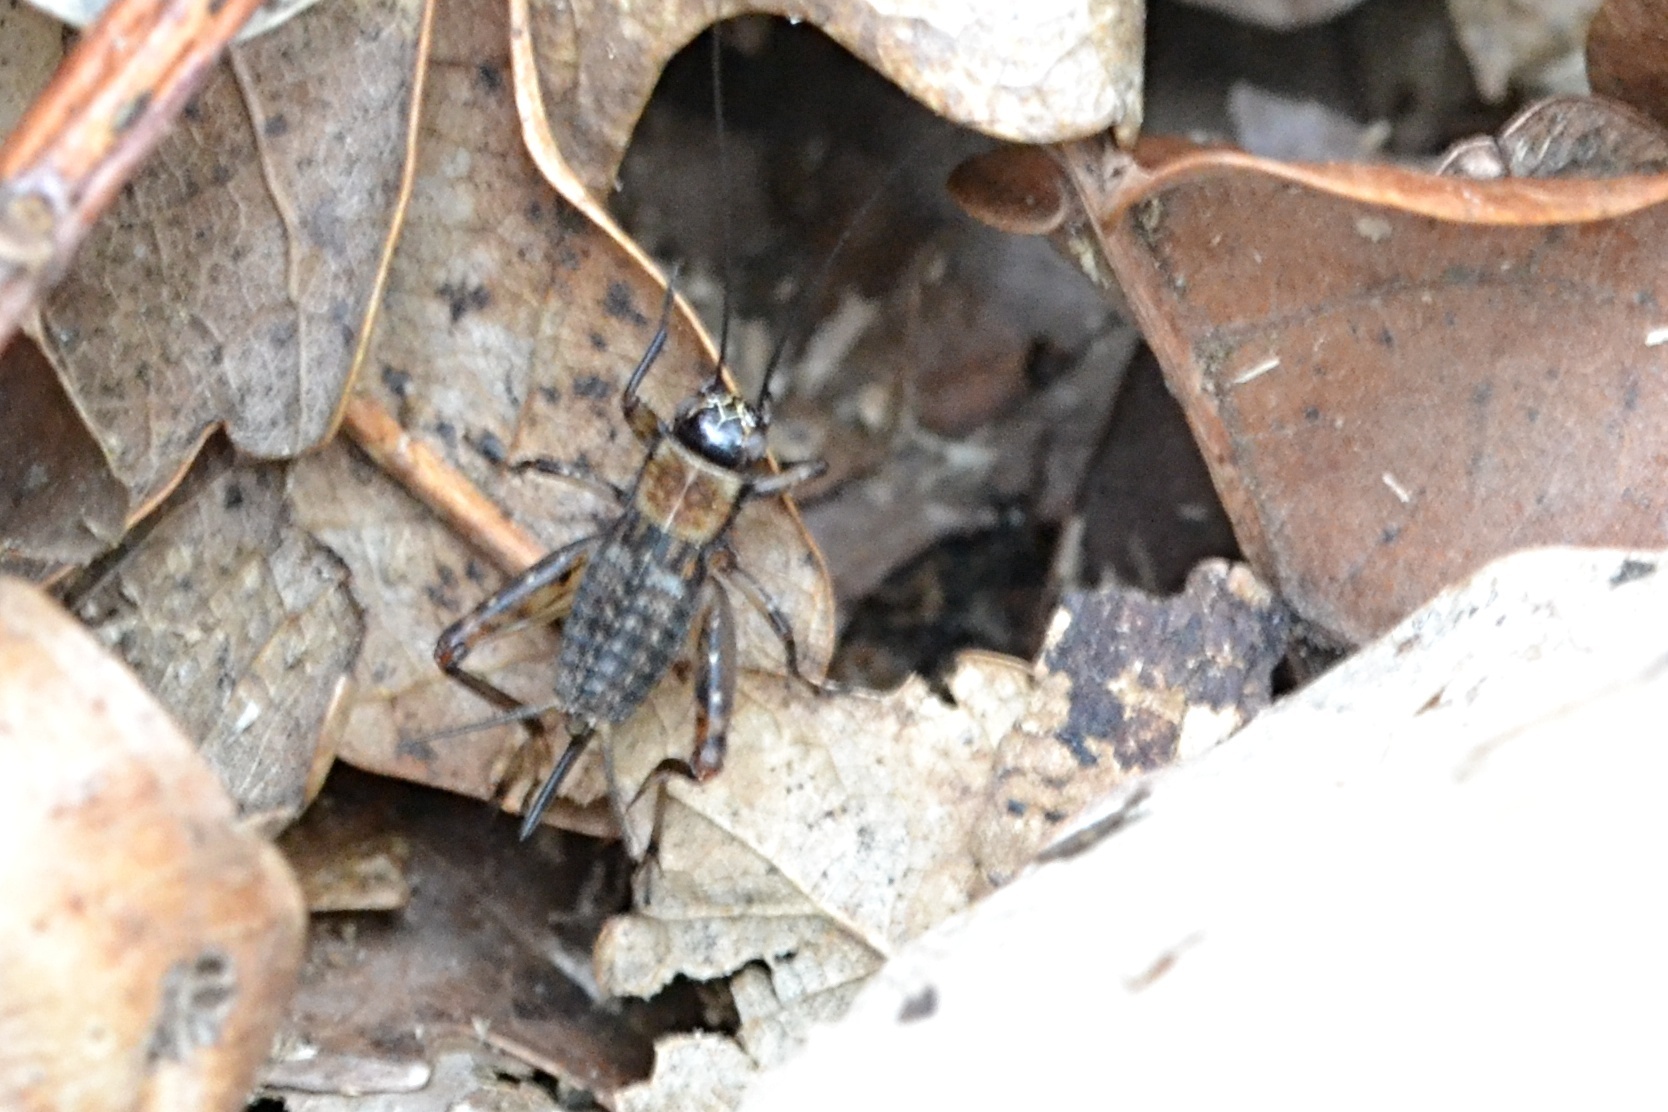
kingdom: Animalia
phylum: Arthropoda
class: Insecta
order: Orthoptera
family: Trigonidiidae
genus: Nemobius
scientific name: Nemobius sylvestris
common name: Wood-cricket
